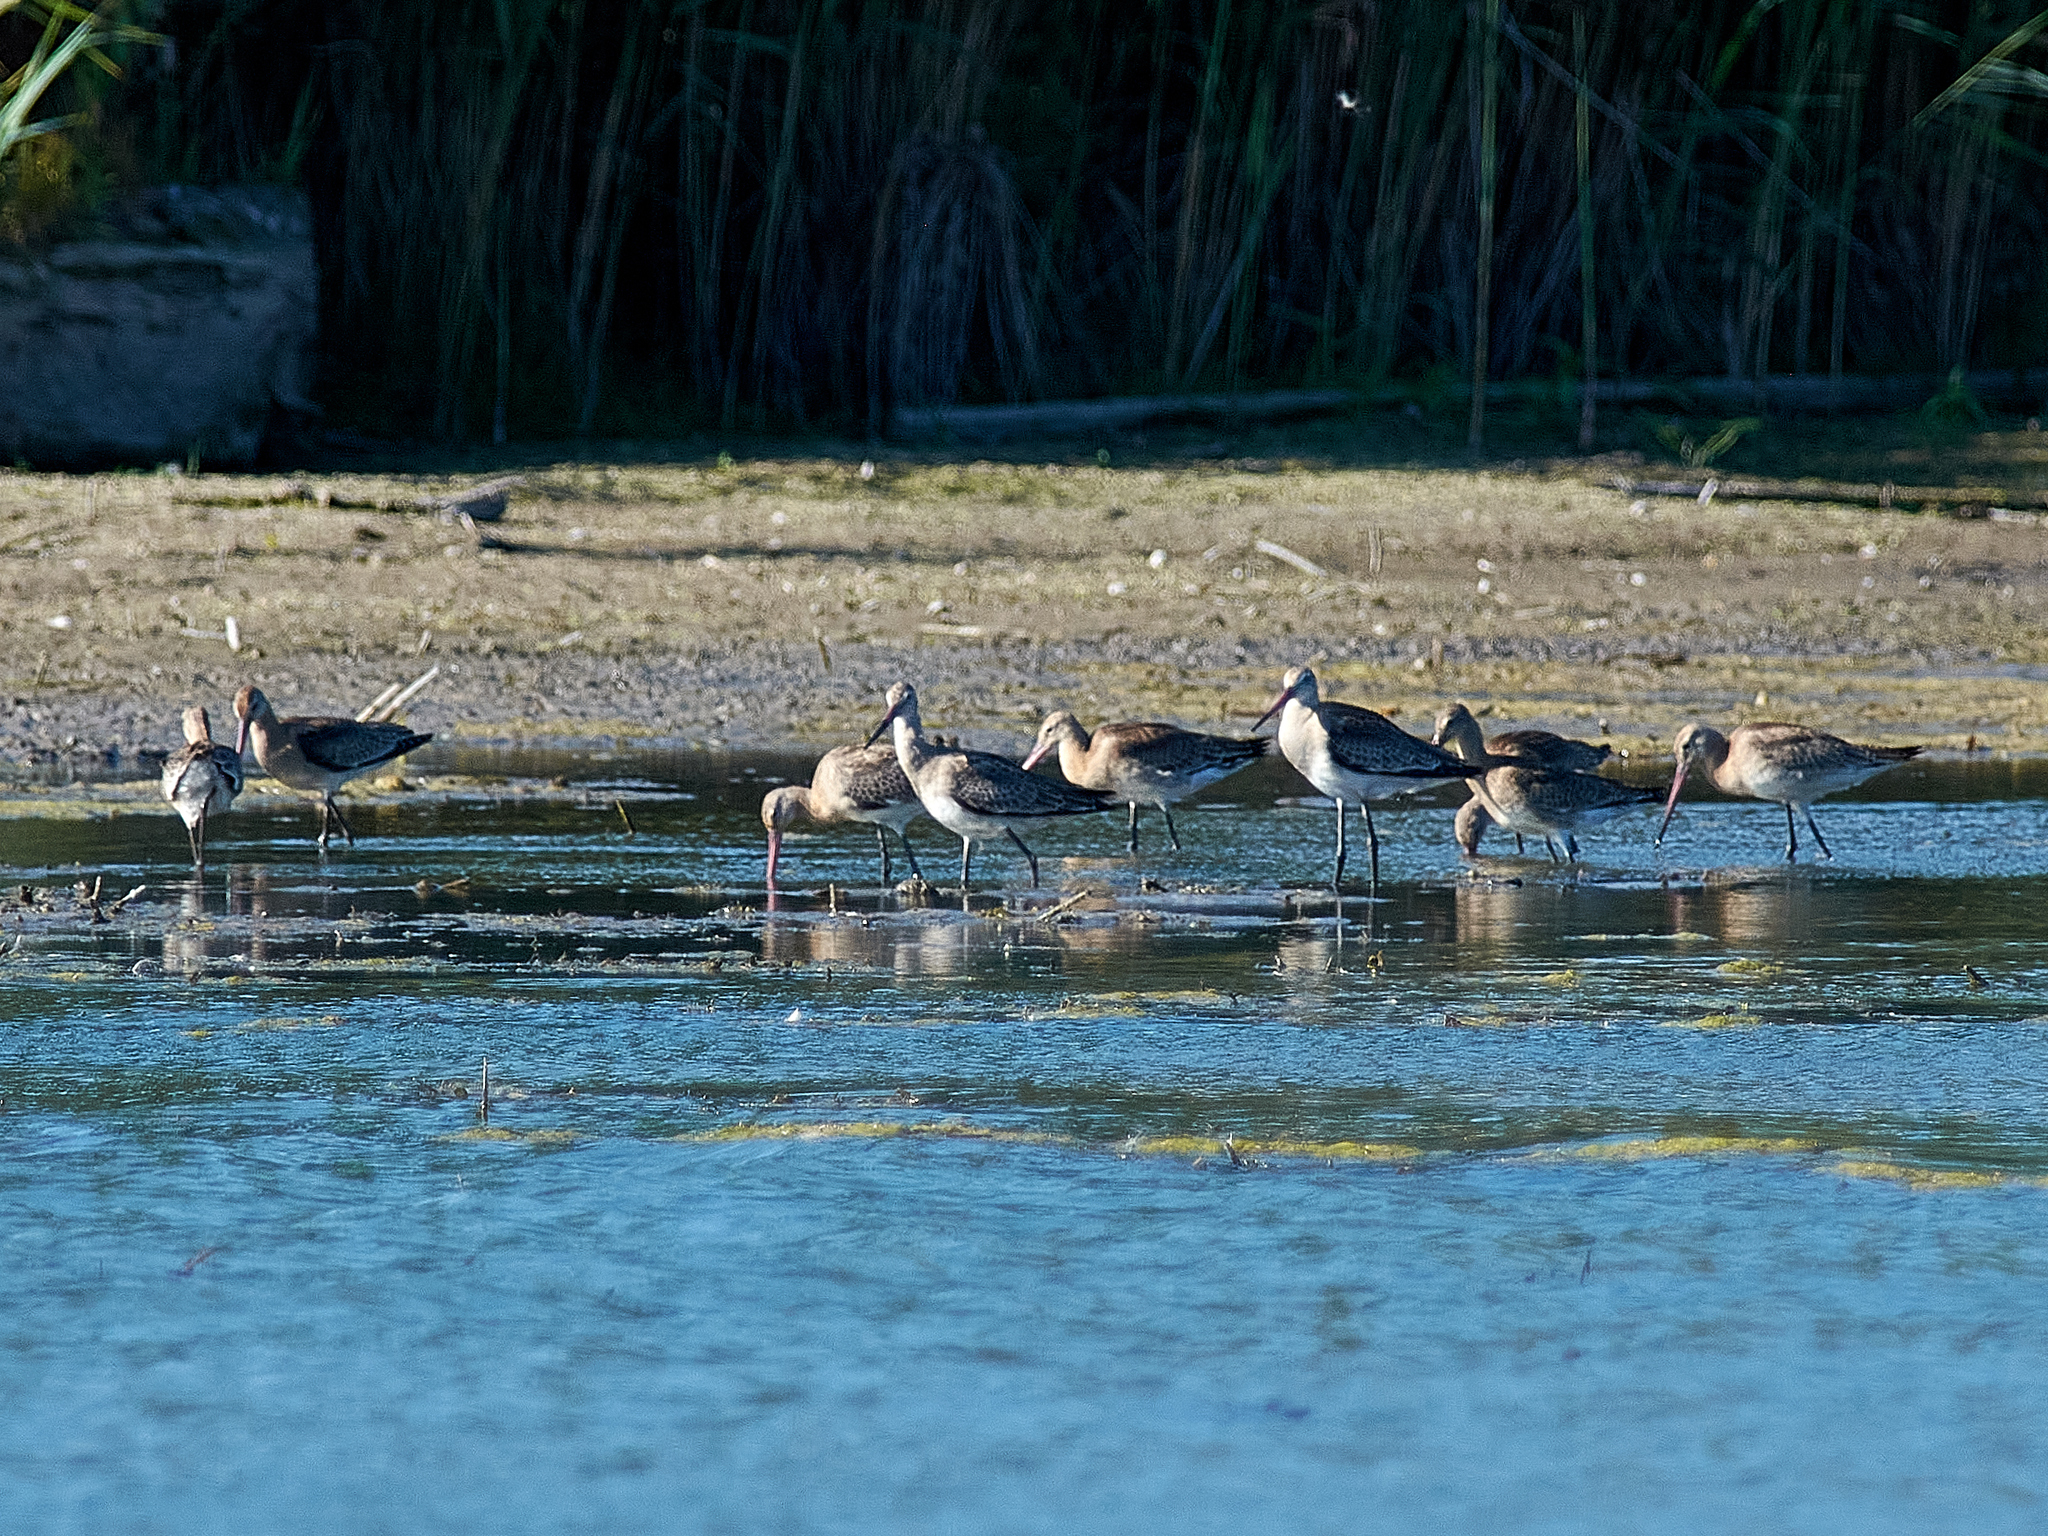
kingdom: Animalia
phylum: Chordata
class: Aves
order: Charadriiformes
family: Scolopacidae
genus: Limosa
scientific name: Limosa limosa
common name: Black-tailed godwit
